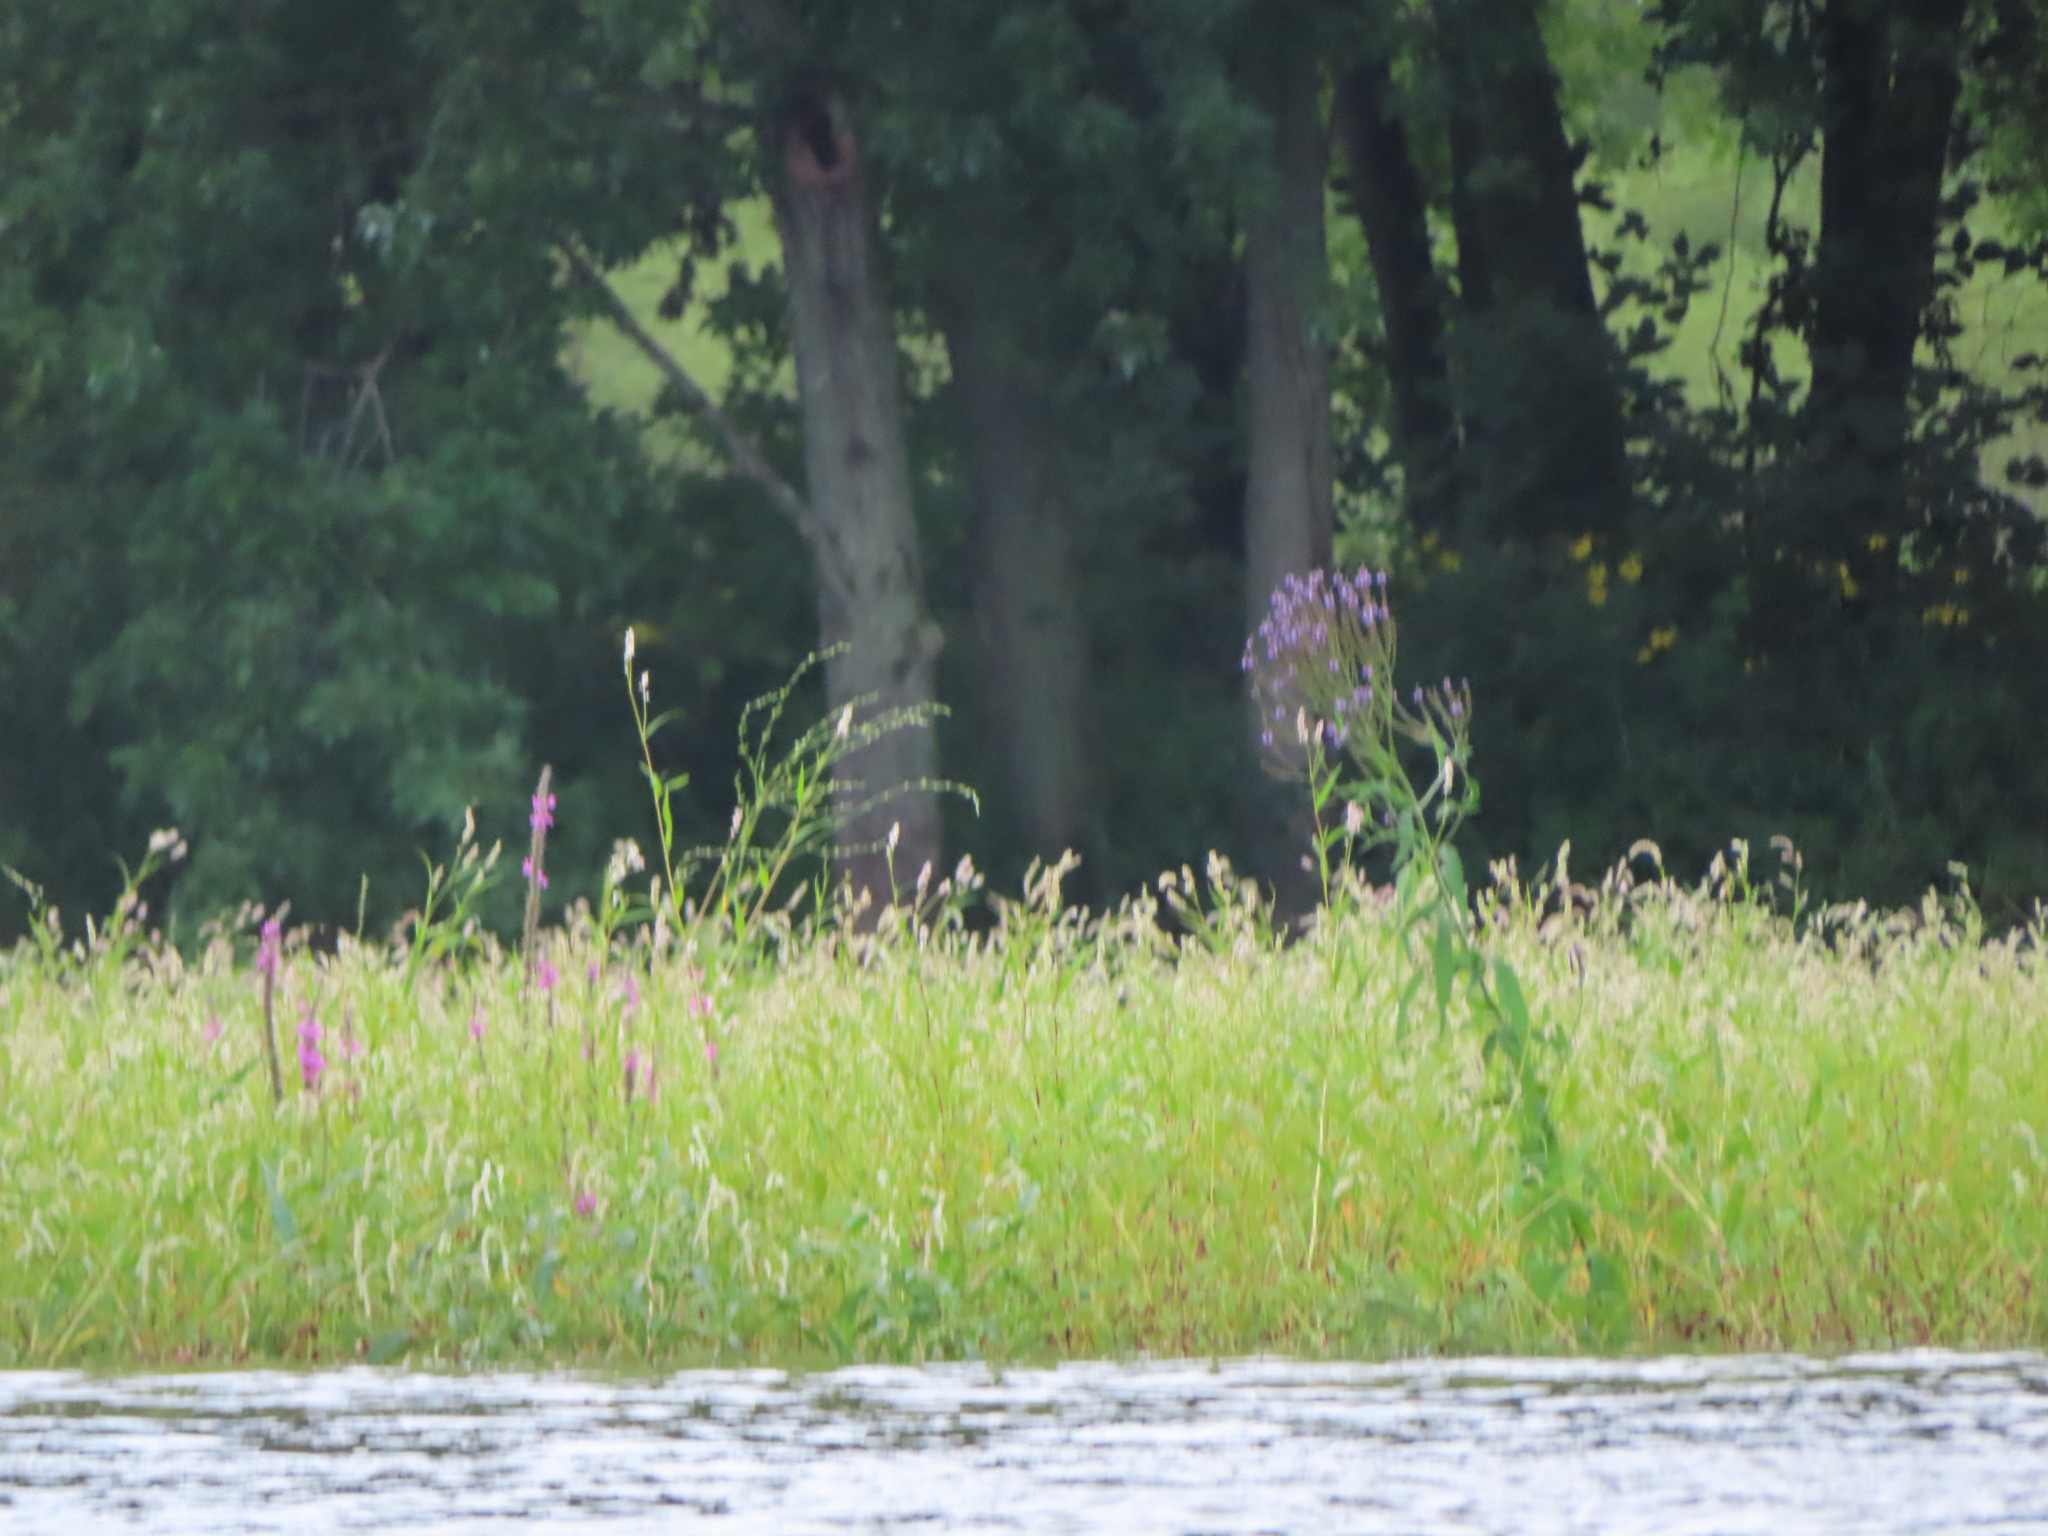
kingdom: Plantae
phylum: Tracheophyta
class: Magnoliopsida
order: Lamiales
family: Verbenaceae
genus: Verbena
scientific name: Verbena hastata
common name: American blue vervain
